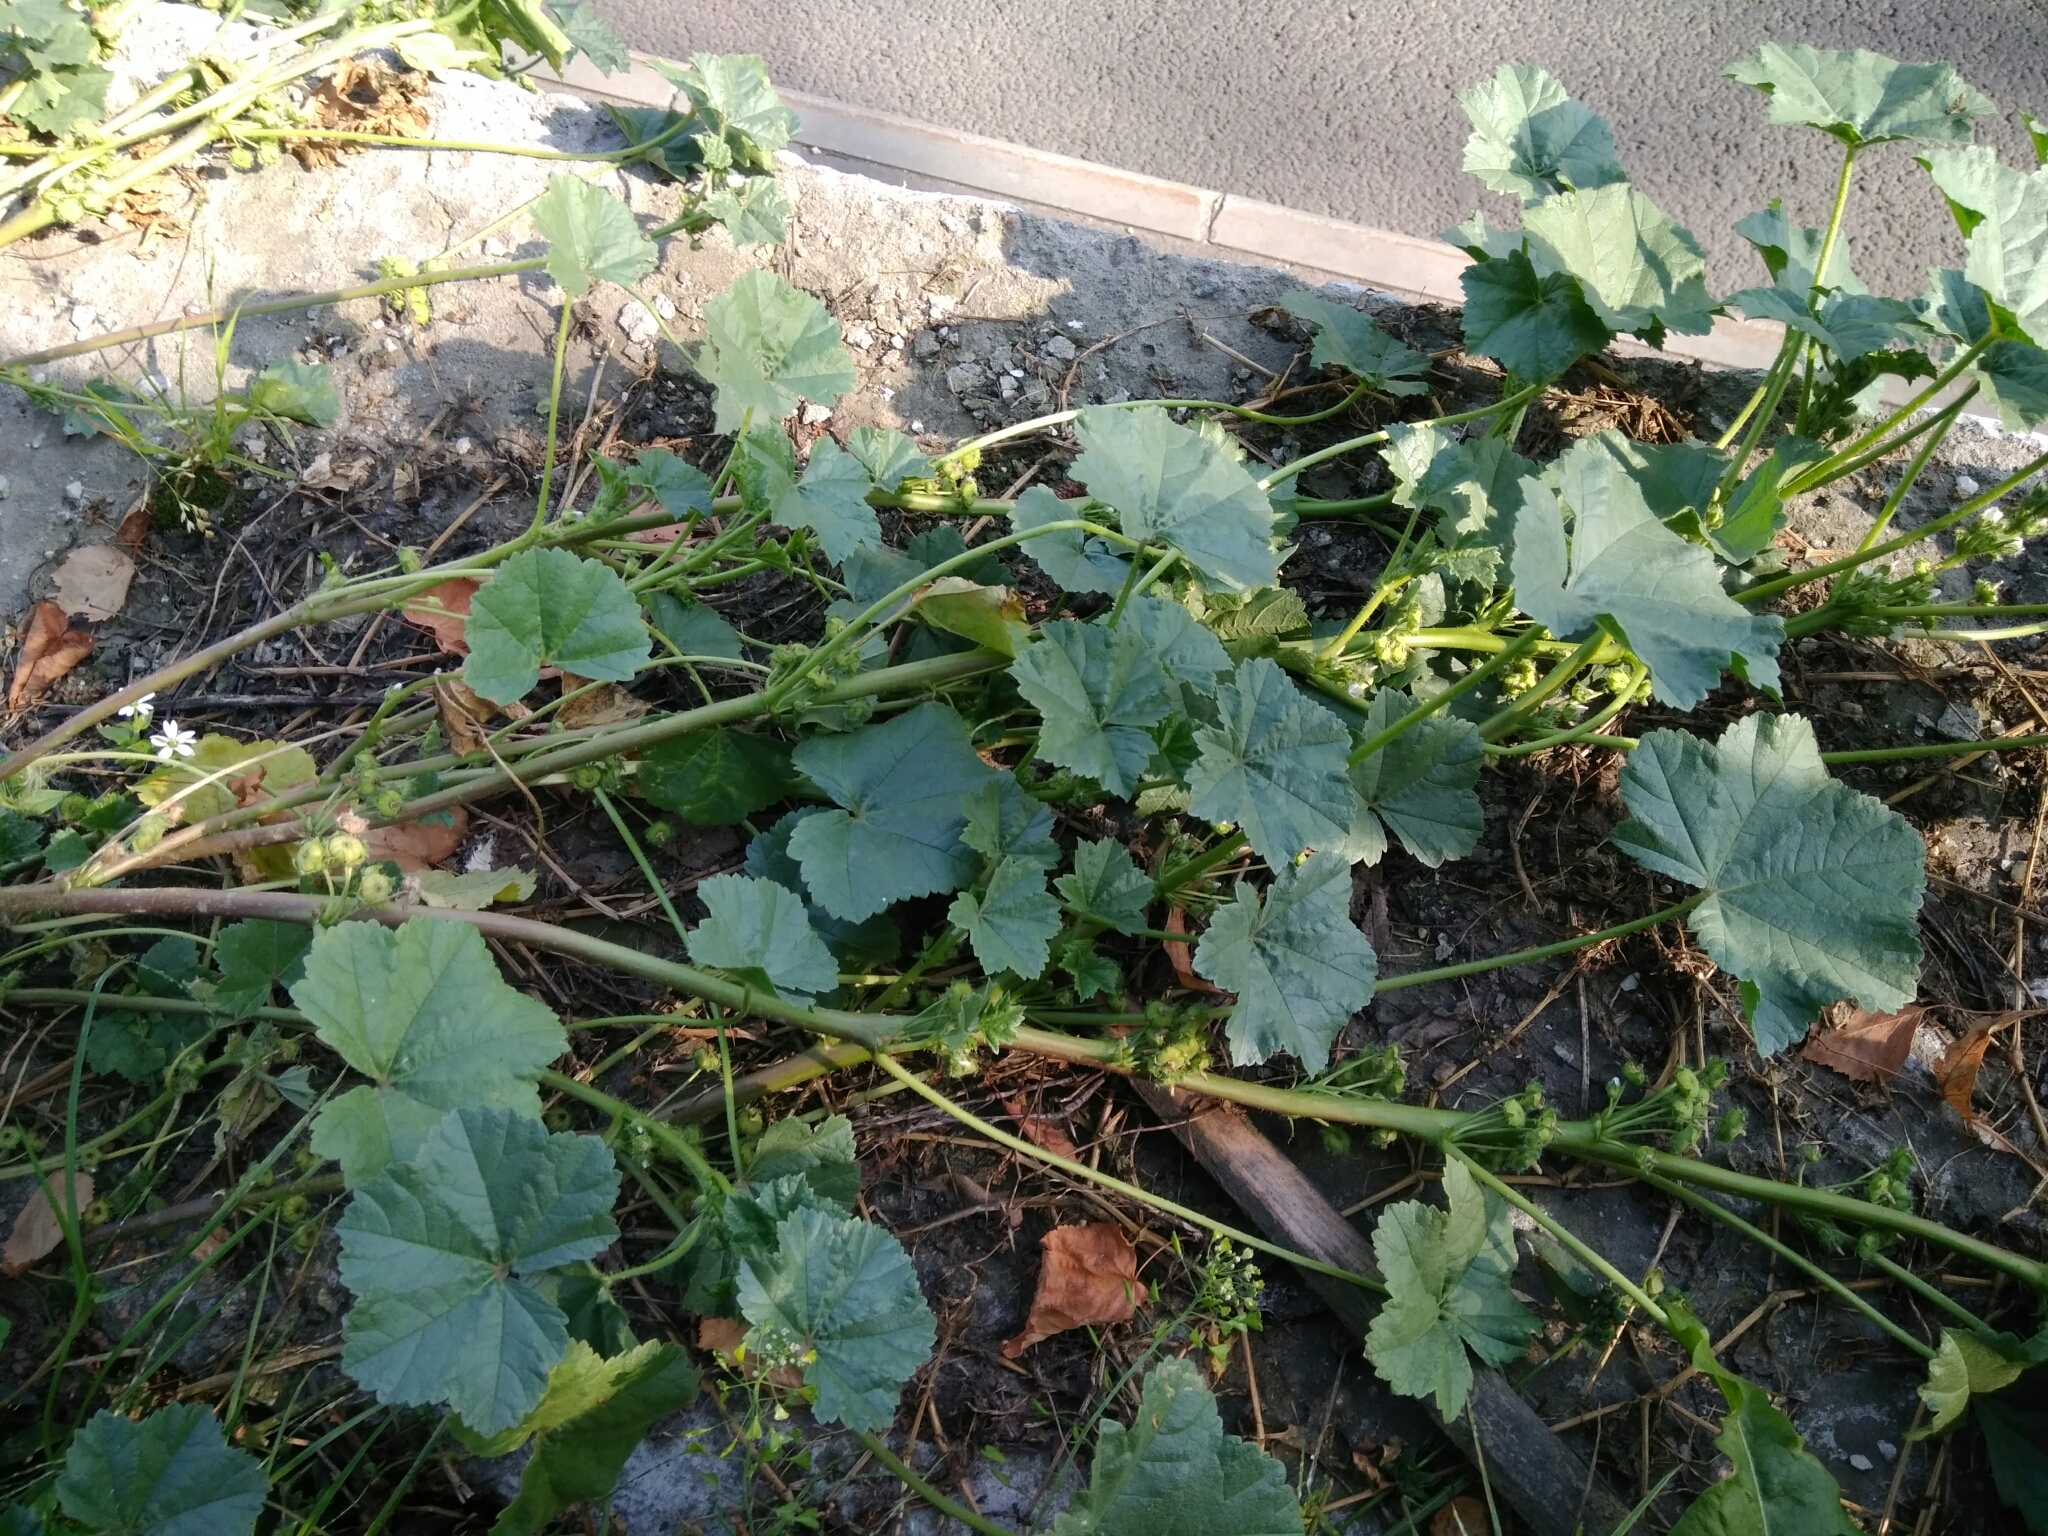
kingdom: Plantae
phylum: Tracheophyta
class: Magnoliopsida
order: Malvales
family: Malvaceae
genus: Malva
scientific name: Malva pusilla
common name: Small mallow
